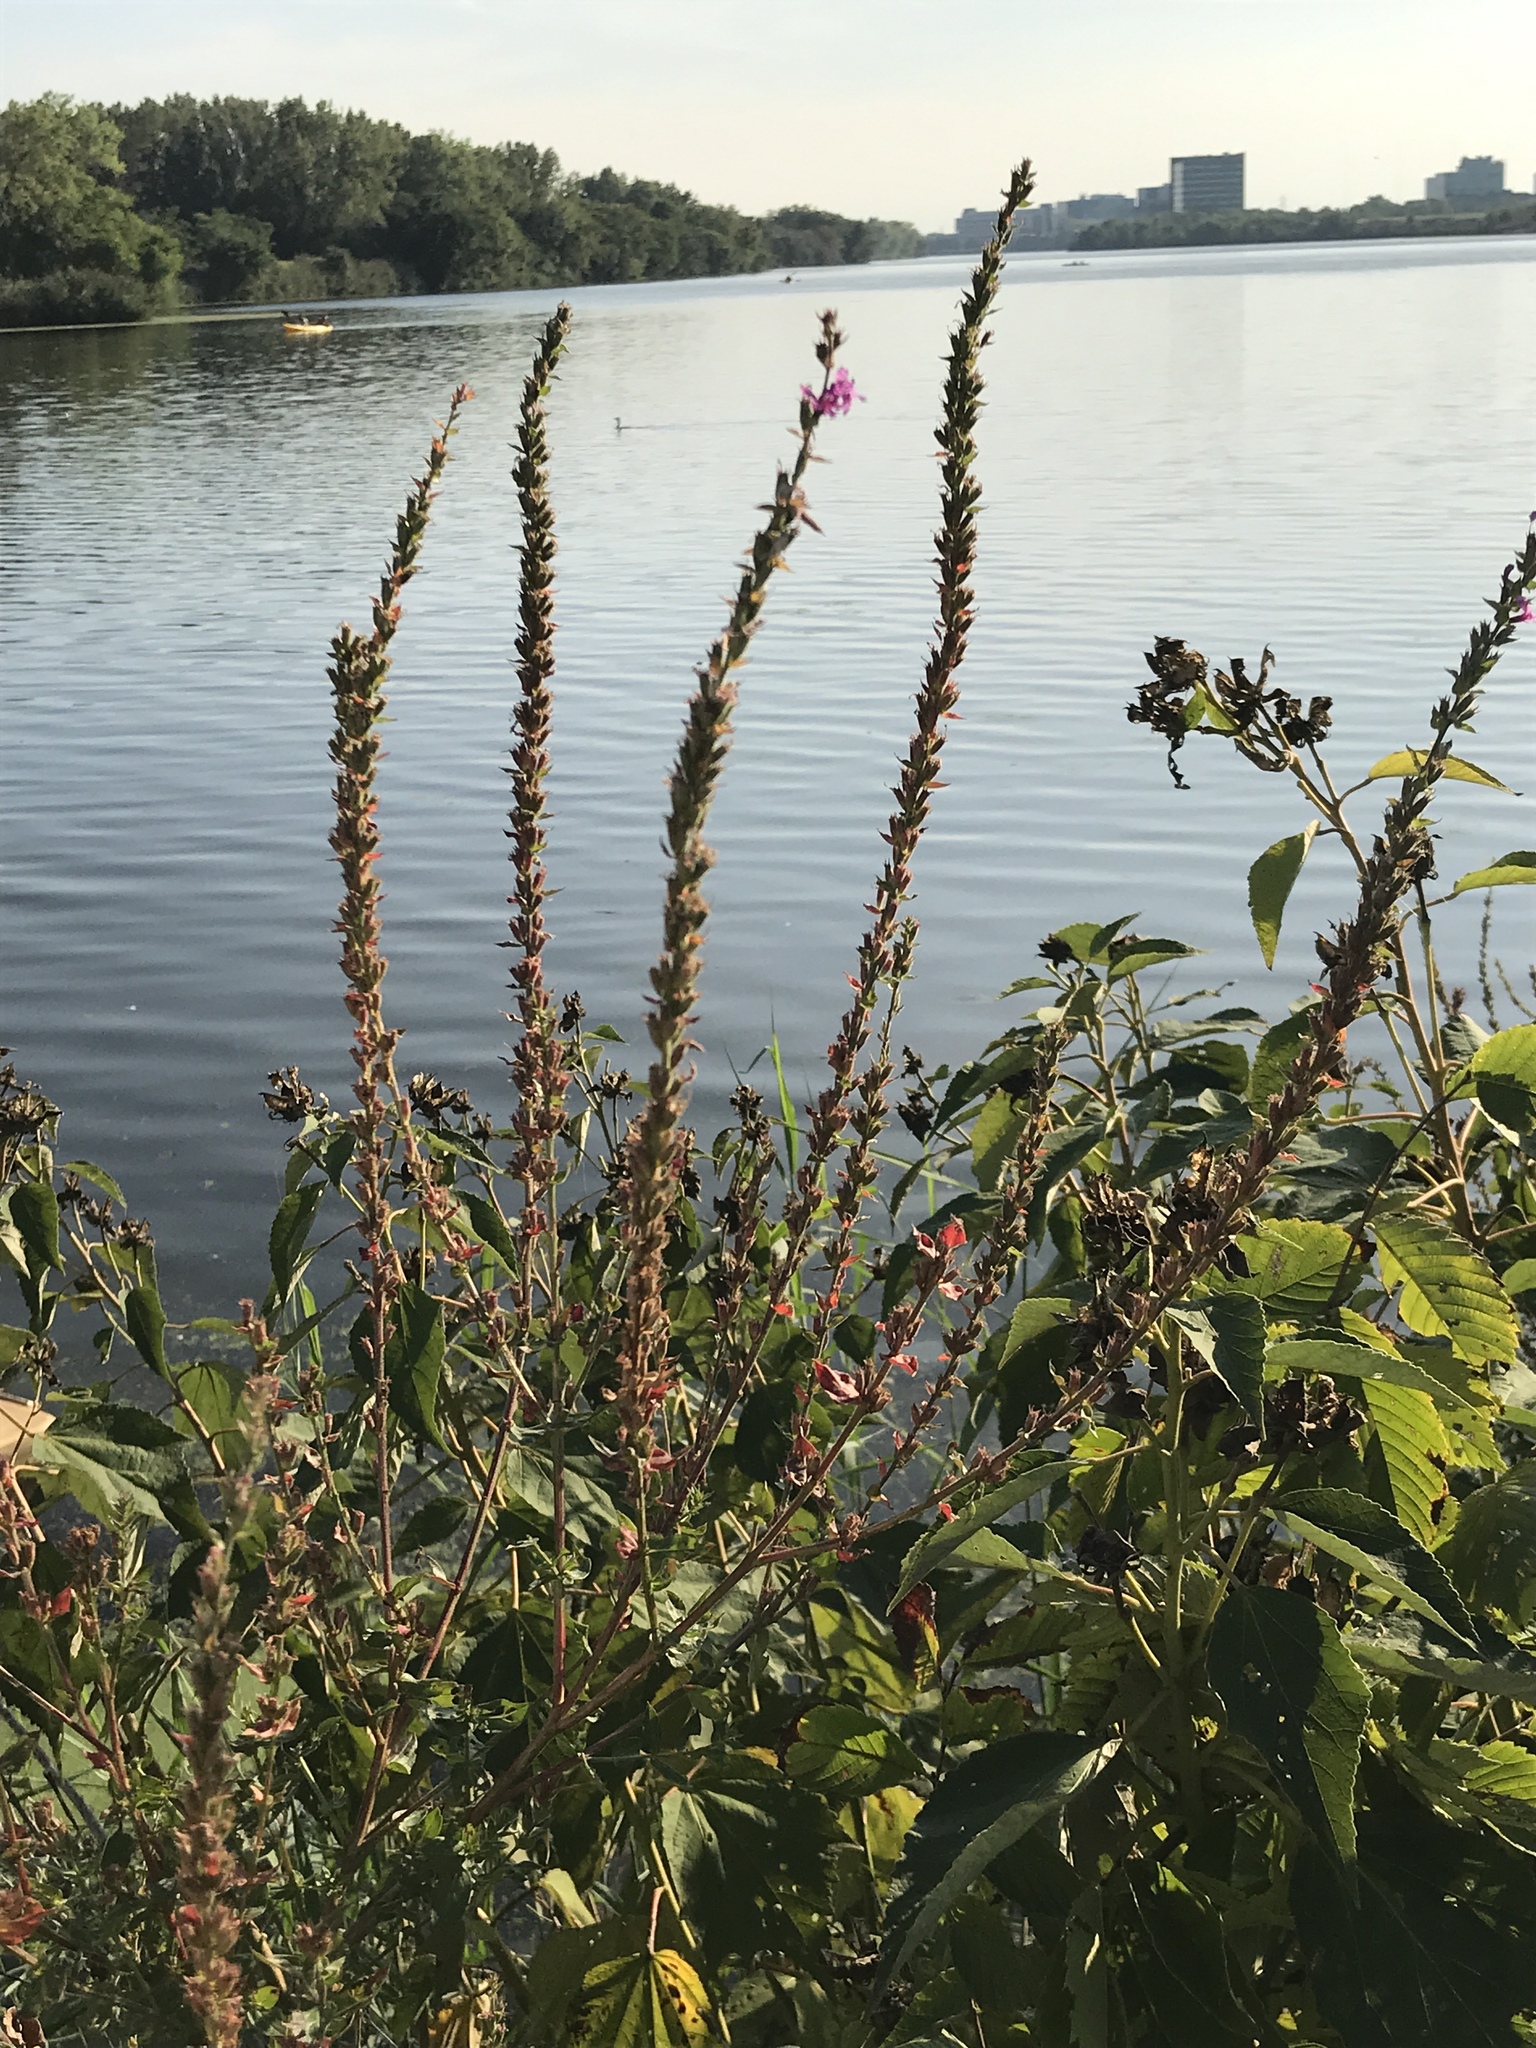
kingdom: Plantae
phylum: Tracheophyta
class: Magnoliopsida
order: Myrtales
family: Lythraceae
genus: Lythrum
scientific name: Lythrum salicaria
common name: Purple loosestrife
